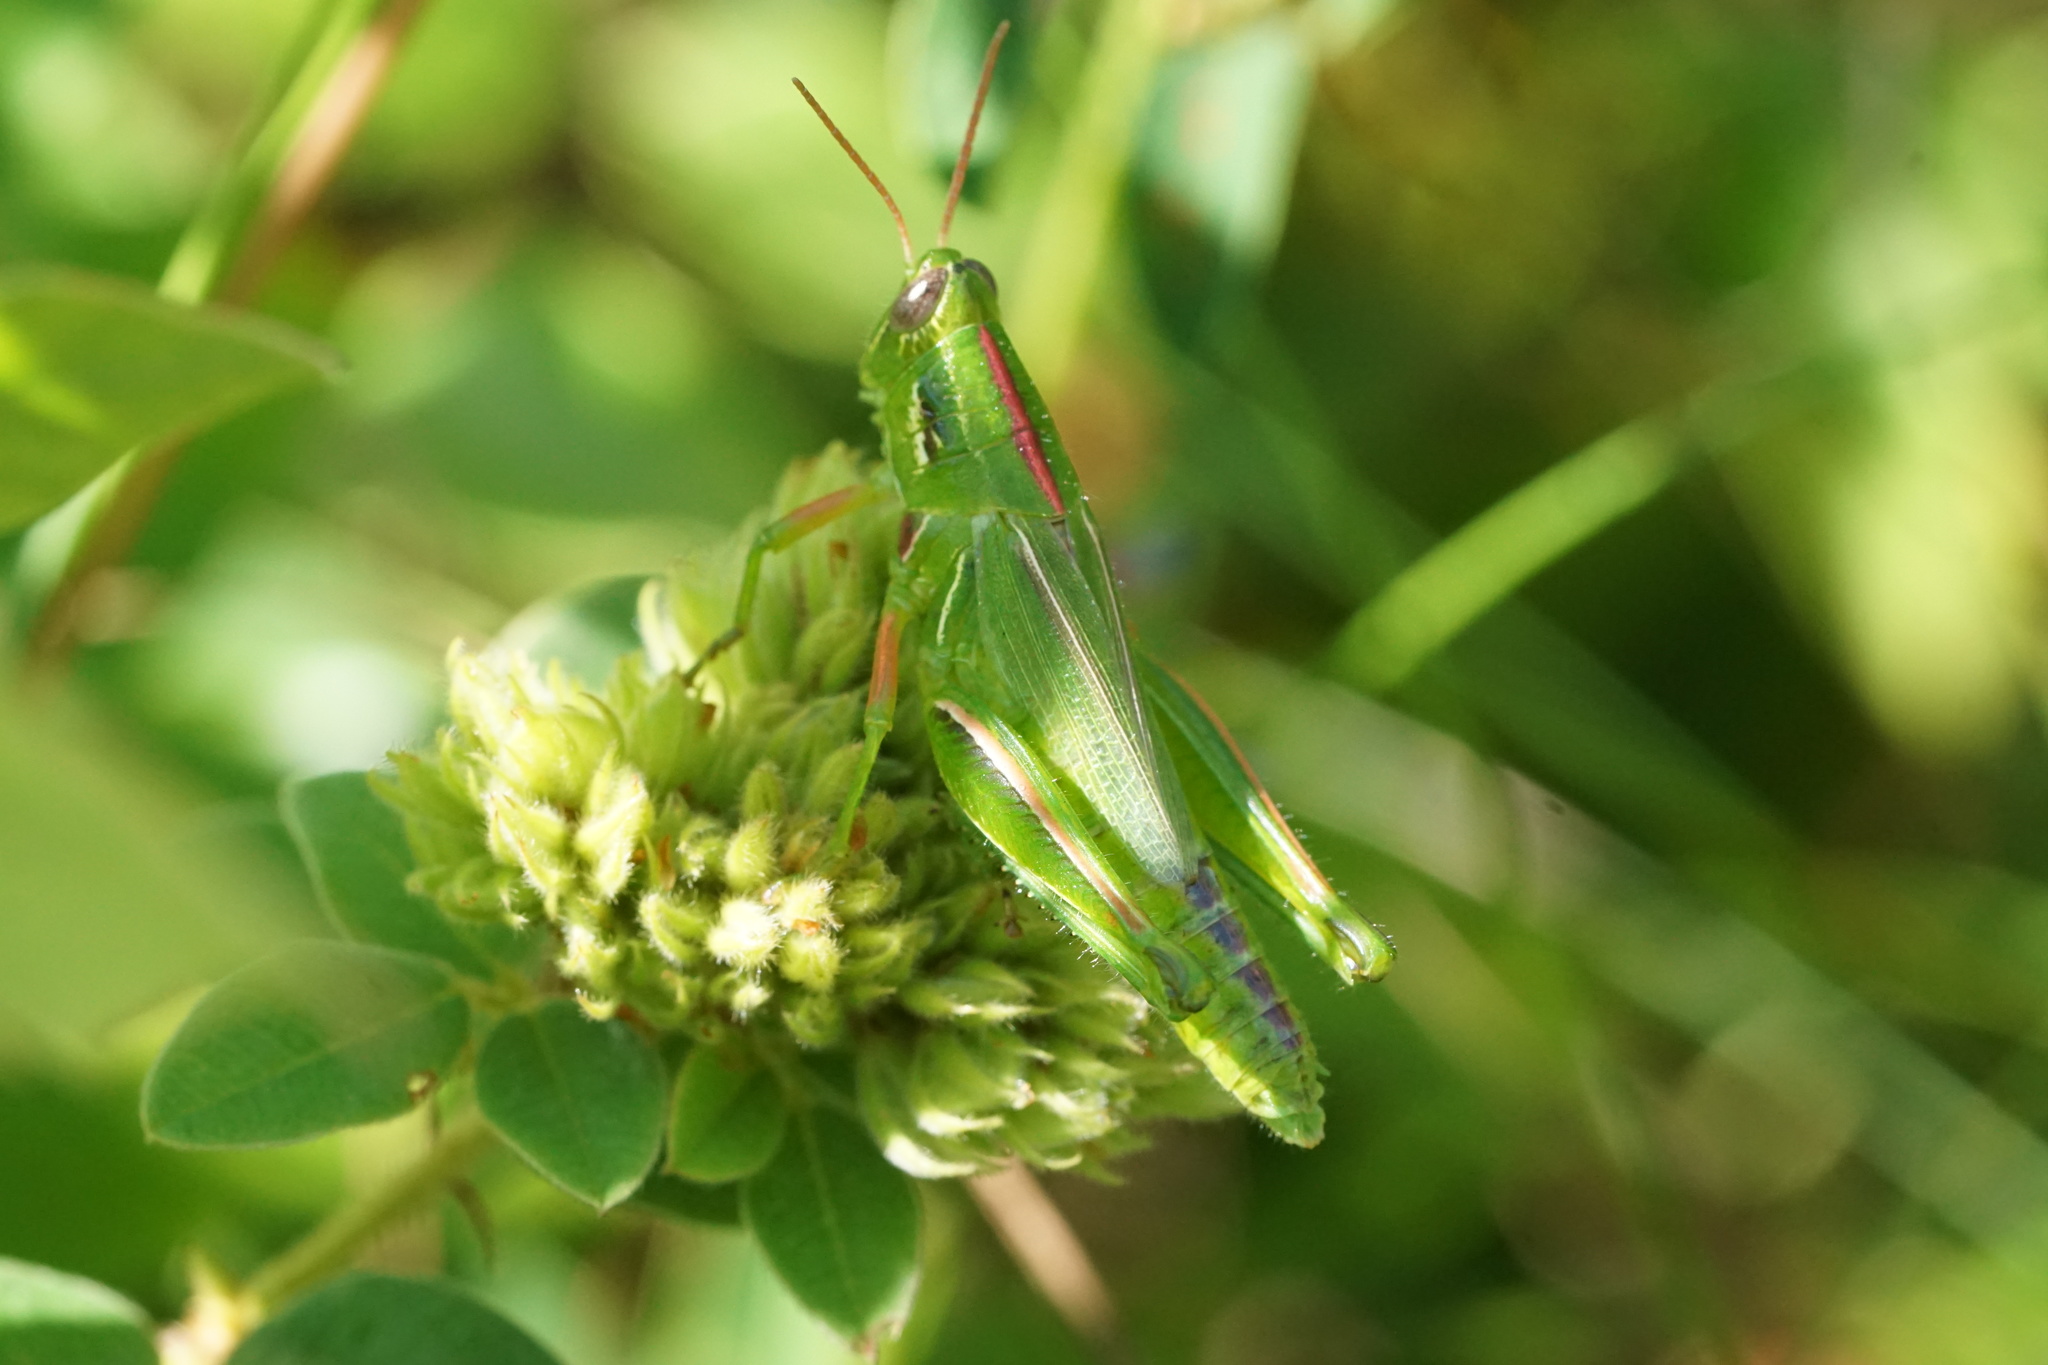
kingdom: Animalia
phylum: Arthropoda
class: Insecta
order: Orthoptera
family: Acrididae
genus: Hesperotettix
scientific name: Hesperotettix viridis
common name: Meadow purple-striped grasshopper
